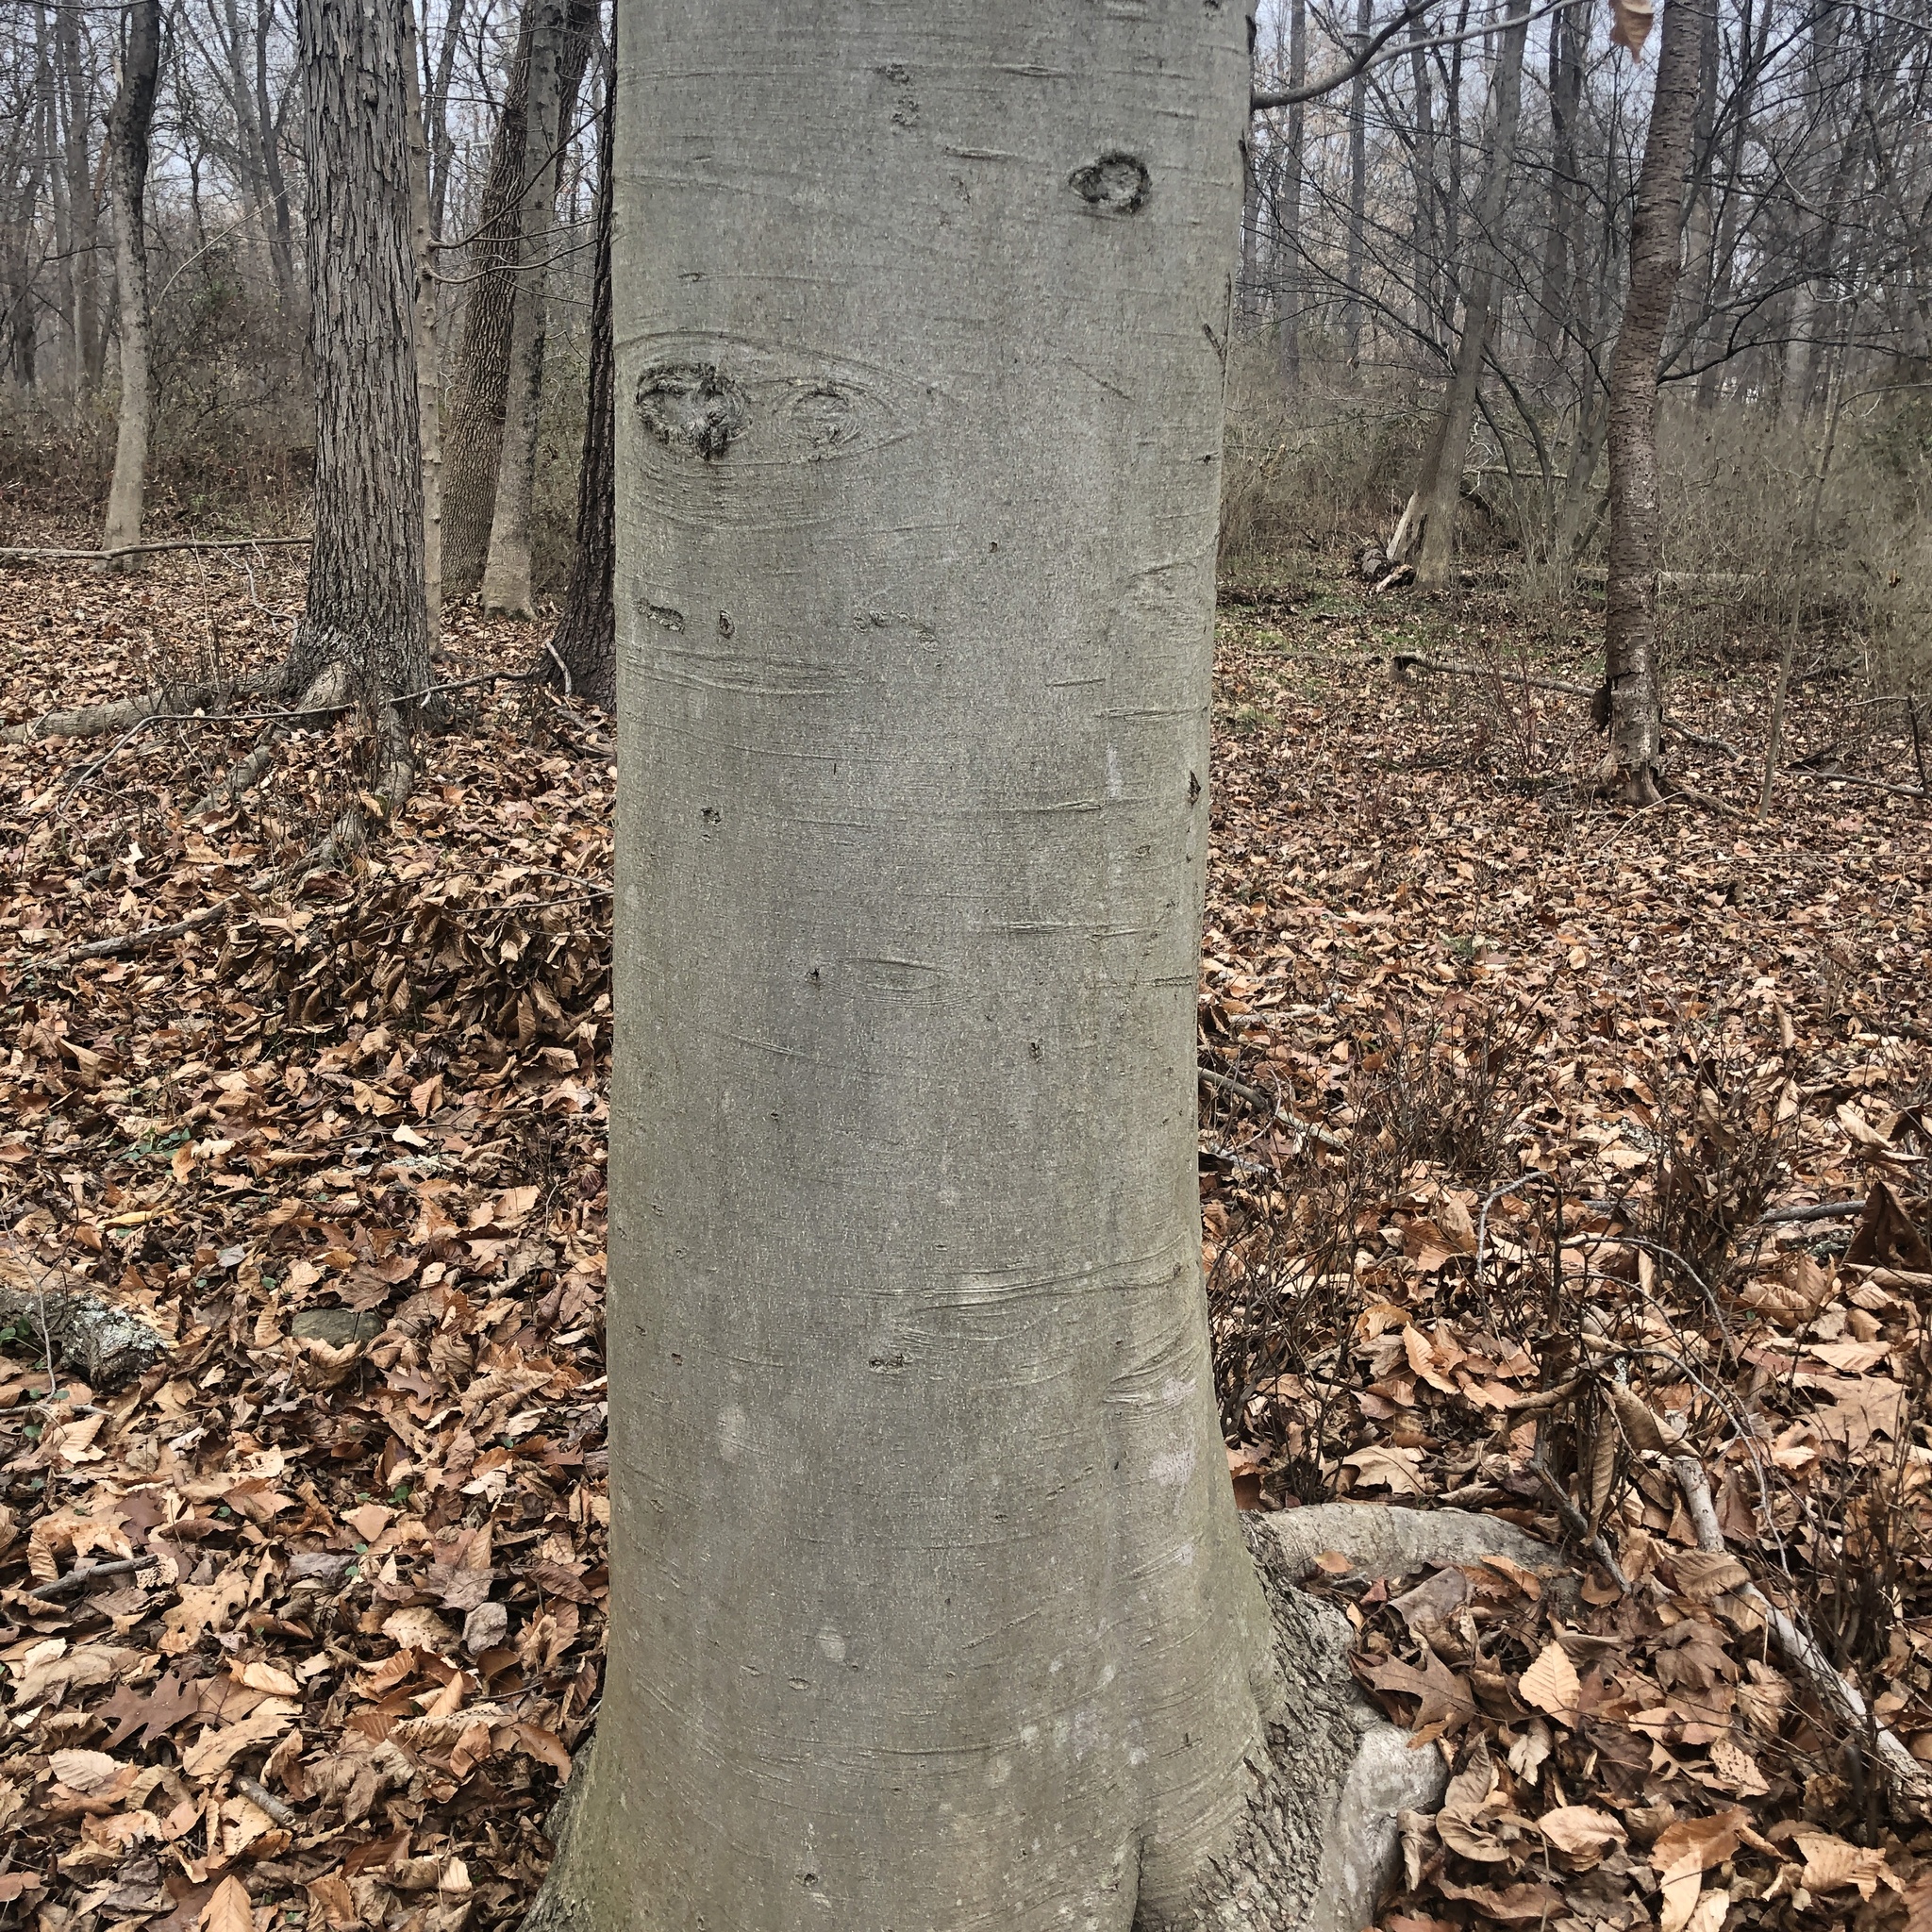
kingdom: Plantae
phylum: Tracheophyta
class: Magnoliopsida
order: Fagales
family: Fagaceae
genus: Fagus
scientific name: Fagus grandifolia
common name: American beech
